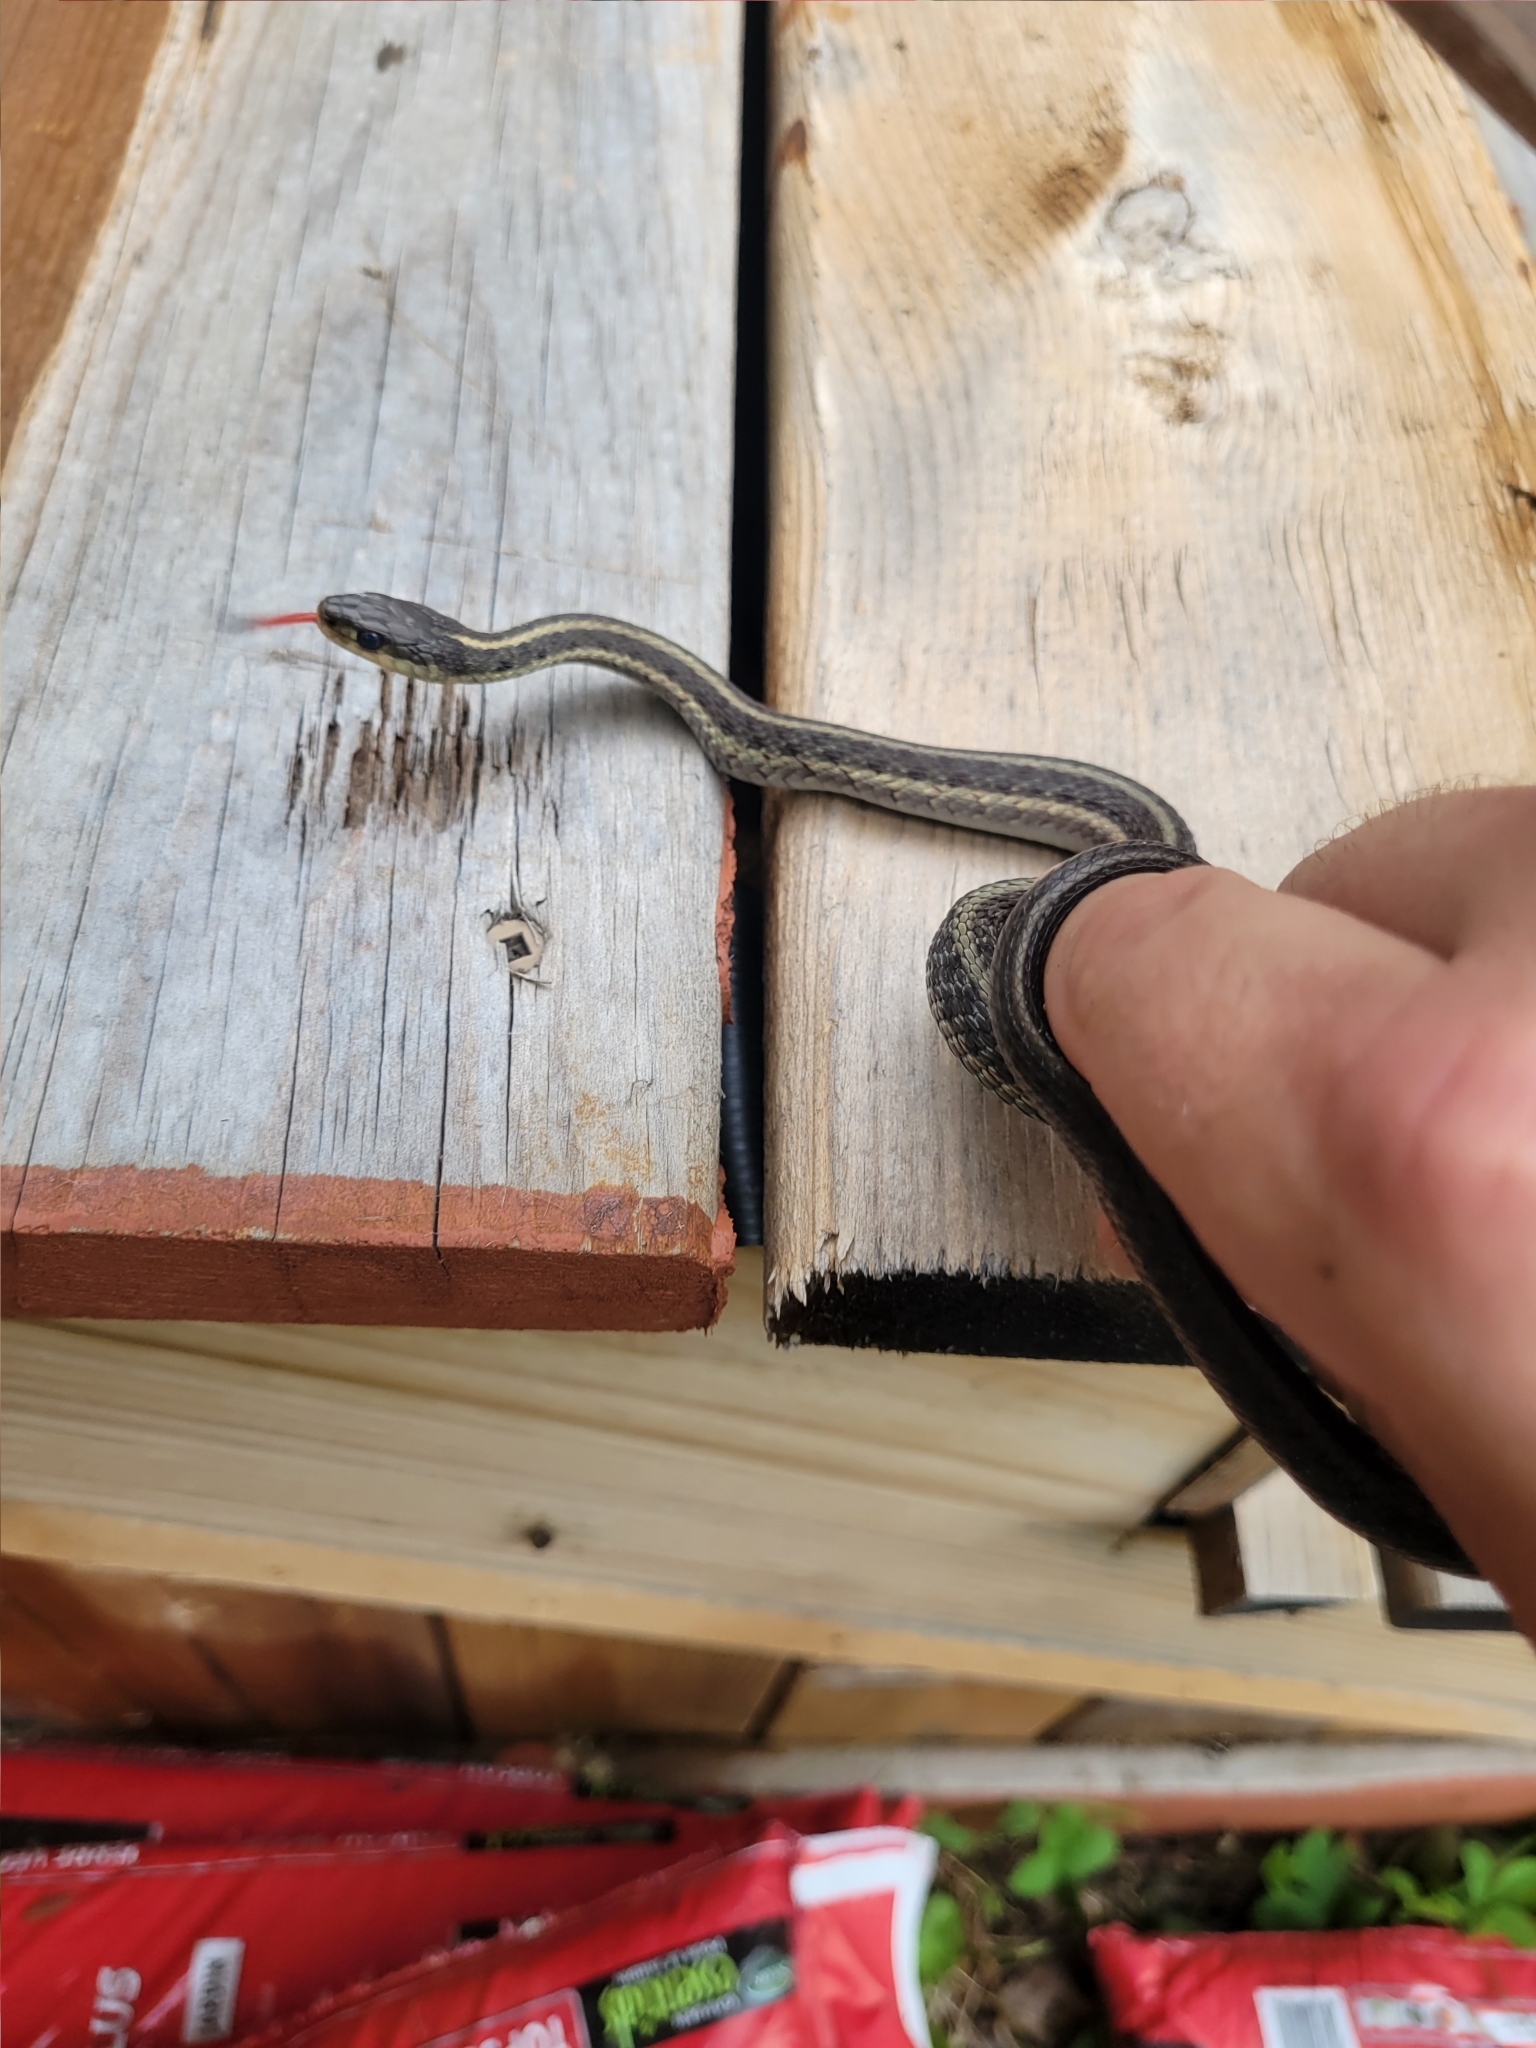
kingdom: Animalia
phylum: Chordata
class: Squamata
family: Colubridae
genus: Thamnophis
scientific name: Thamnophis sirtalis
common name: Common garter snake
